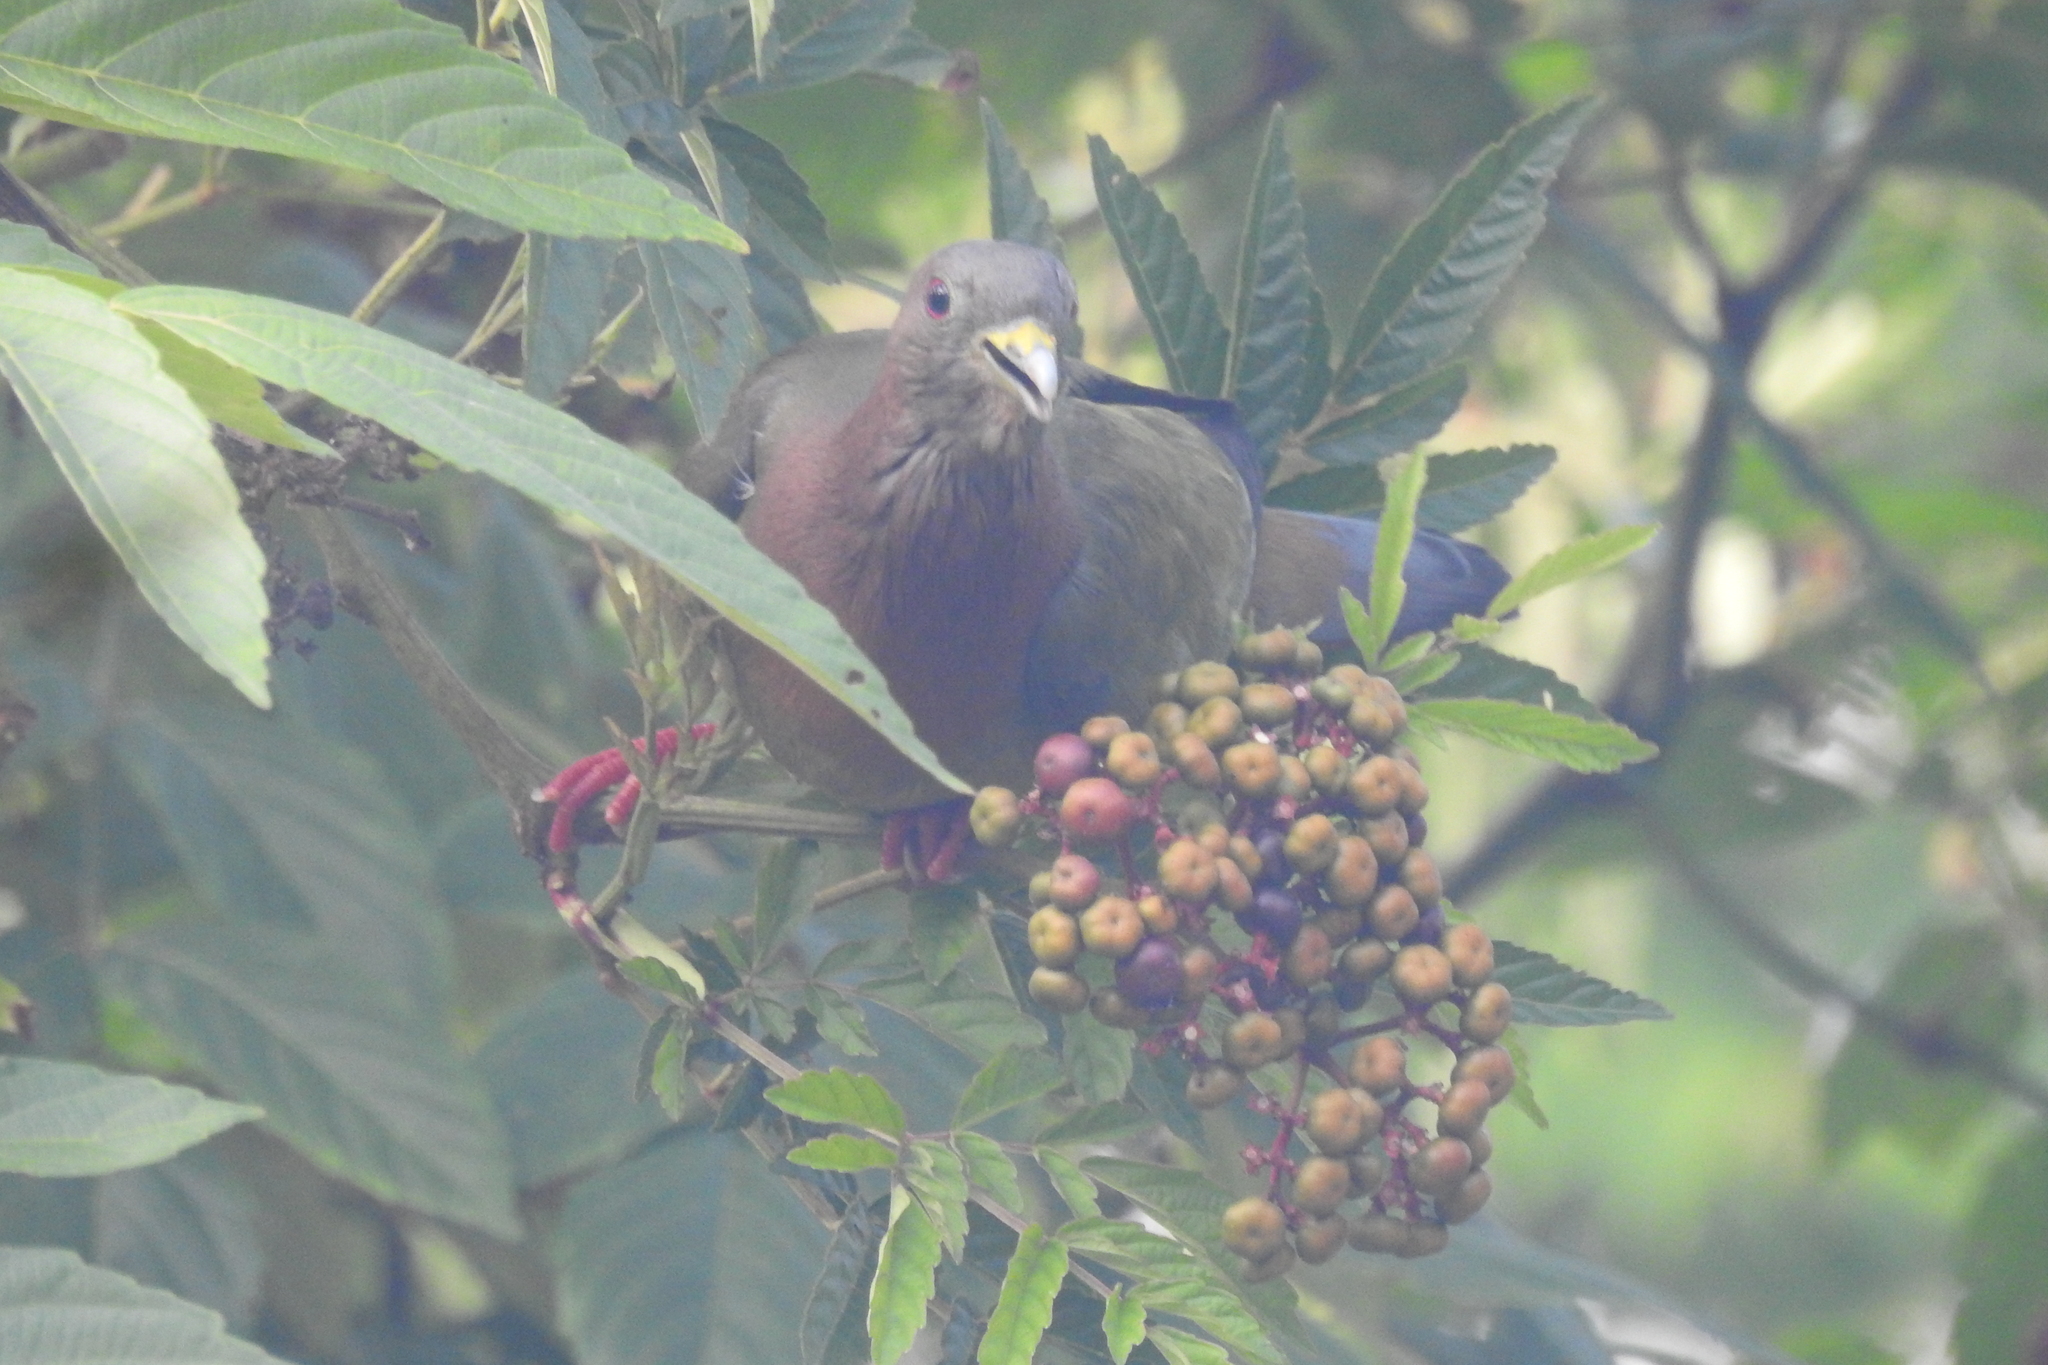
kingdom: Animalia
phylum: Chordata
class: Aves
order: Columbiformes
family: Columbidae
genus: Treron
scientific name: Treron vernans
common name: Pink-necked green pigeon
